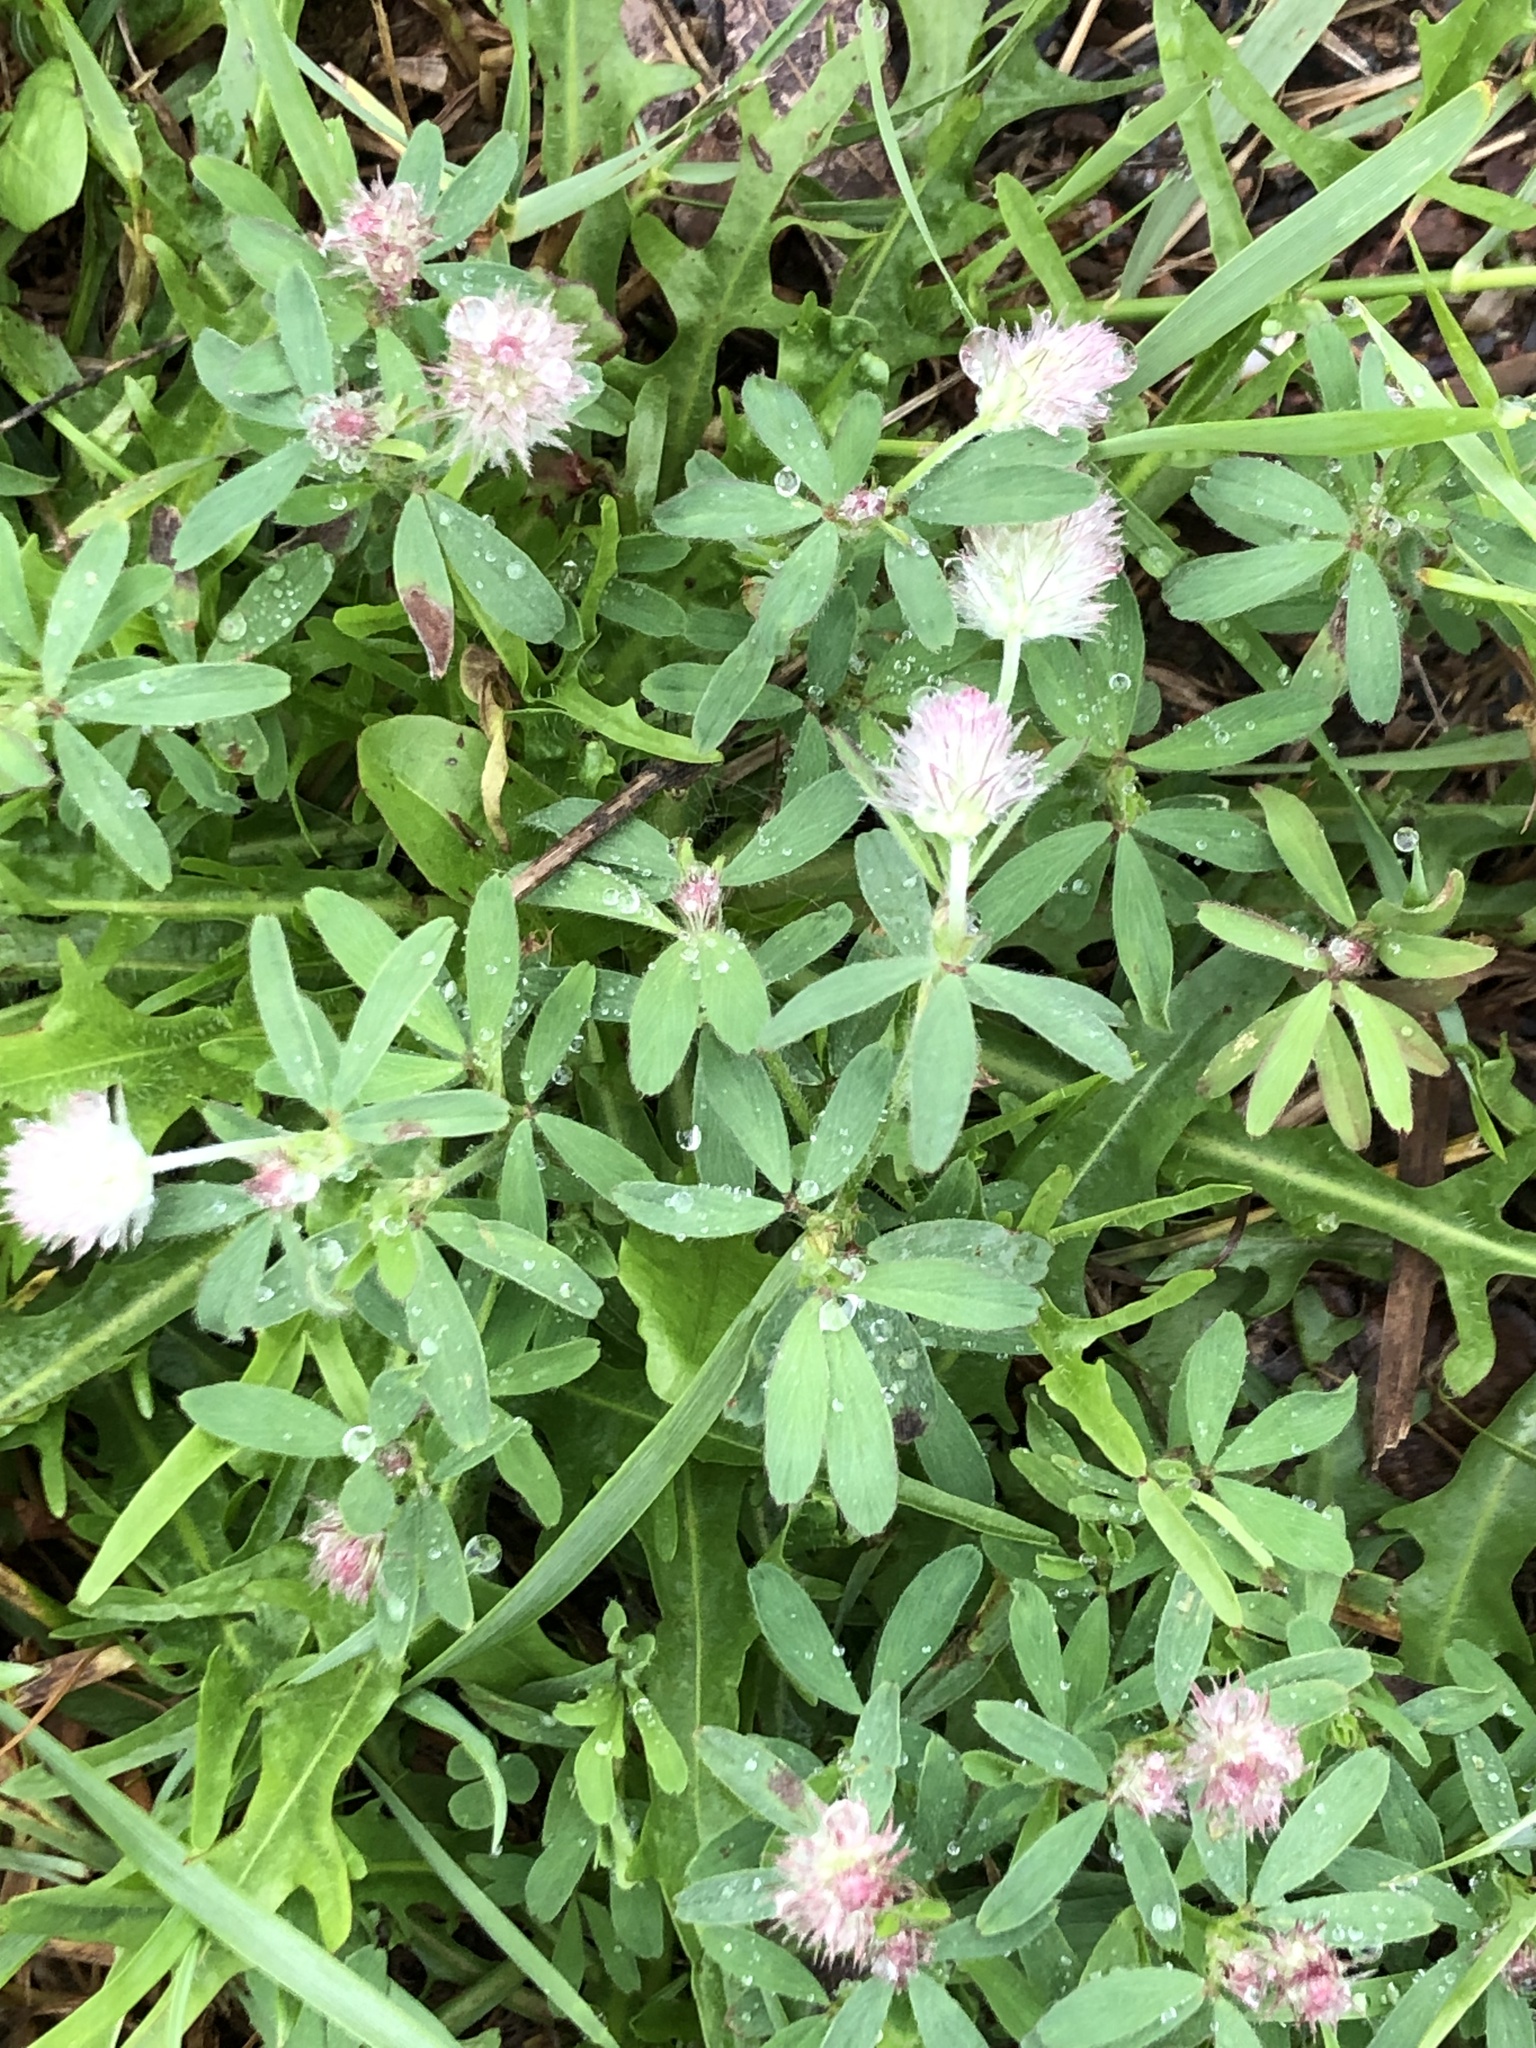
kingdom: Plantae
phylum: Tracheophyta
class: Magnoliopsida
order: Fabales
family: Fabaceae
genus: Trifolium
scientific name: Trifolium arvense
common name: Hare's-foot clover
